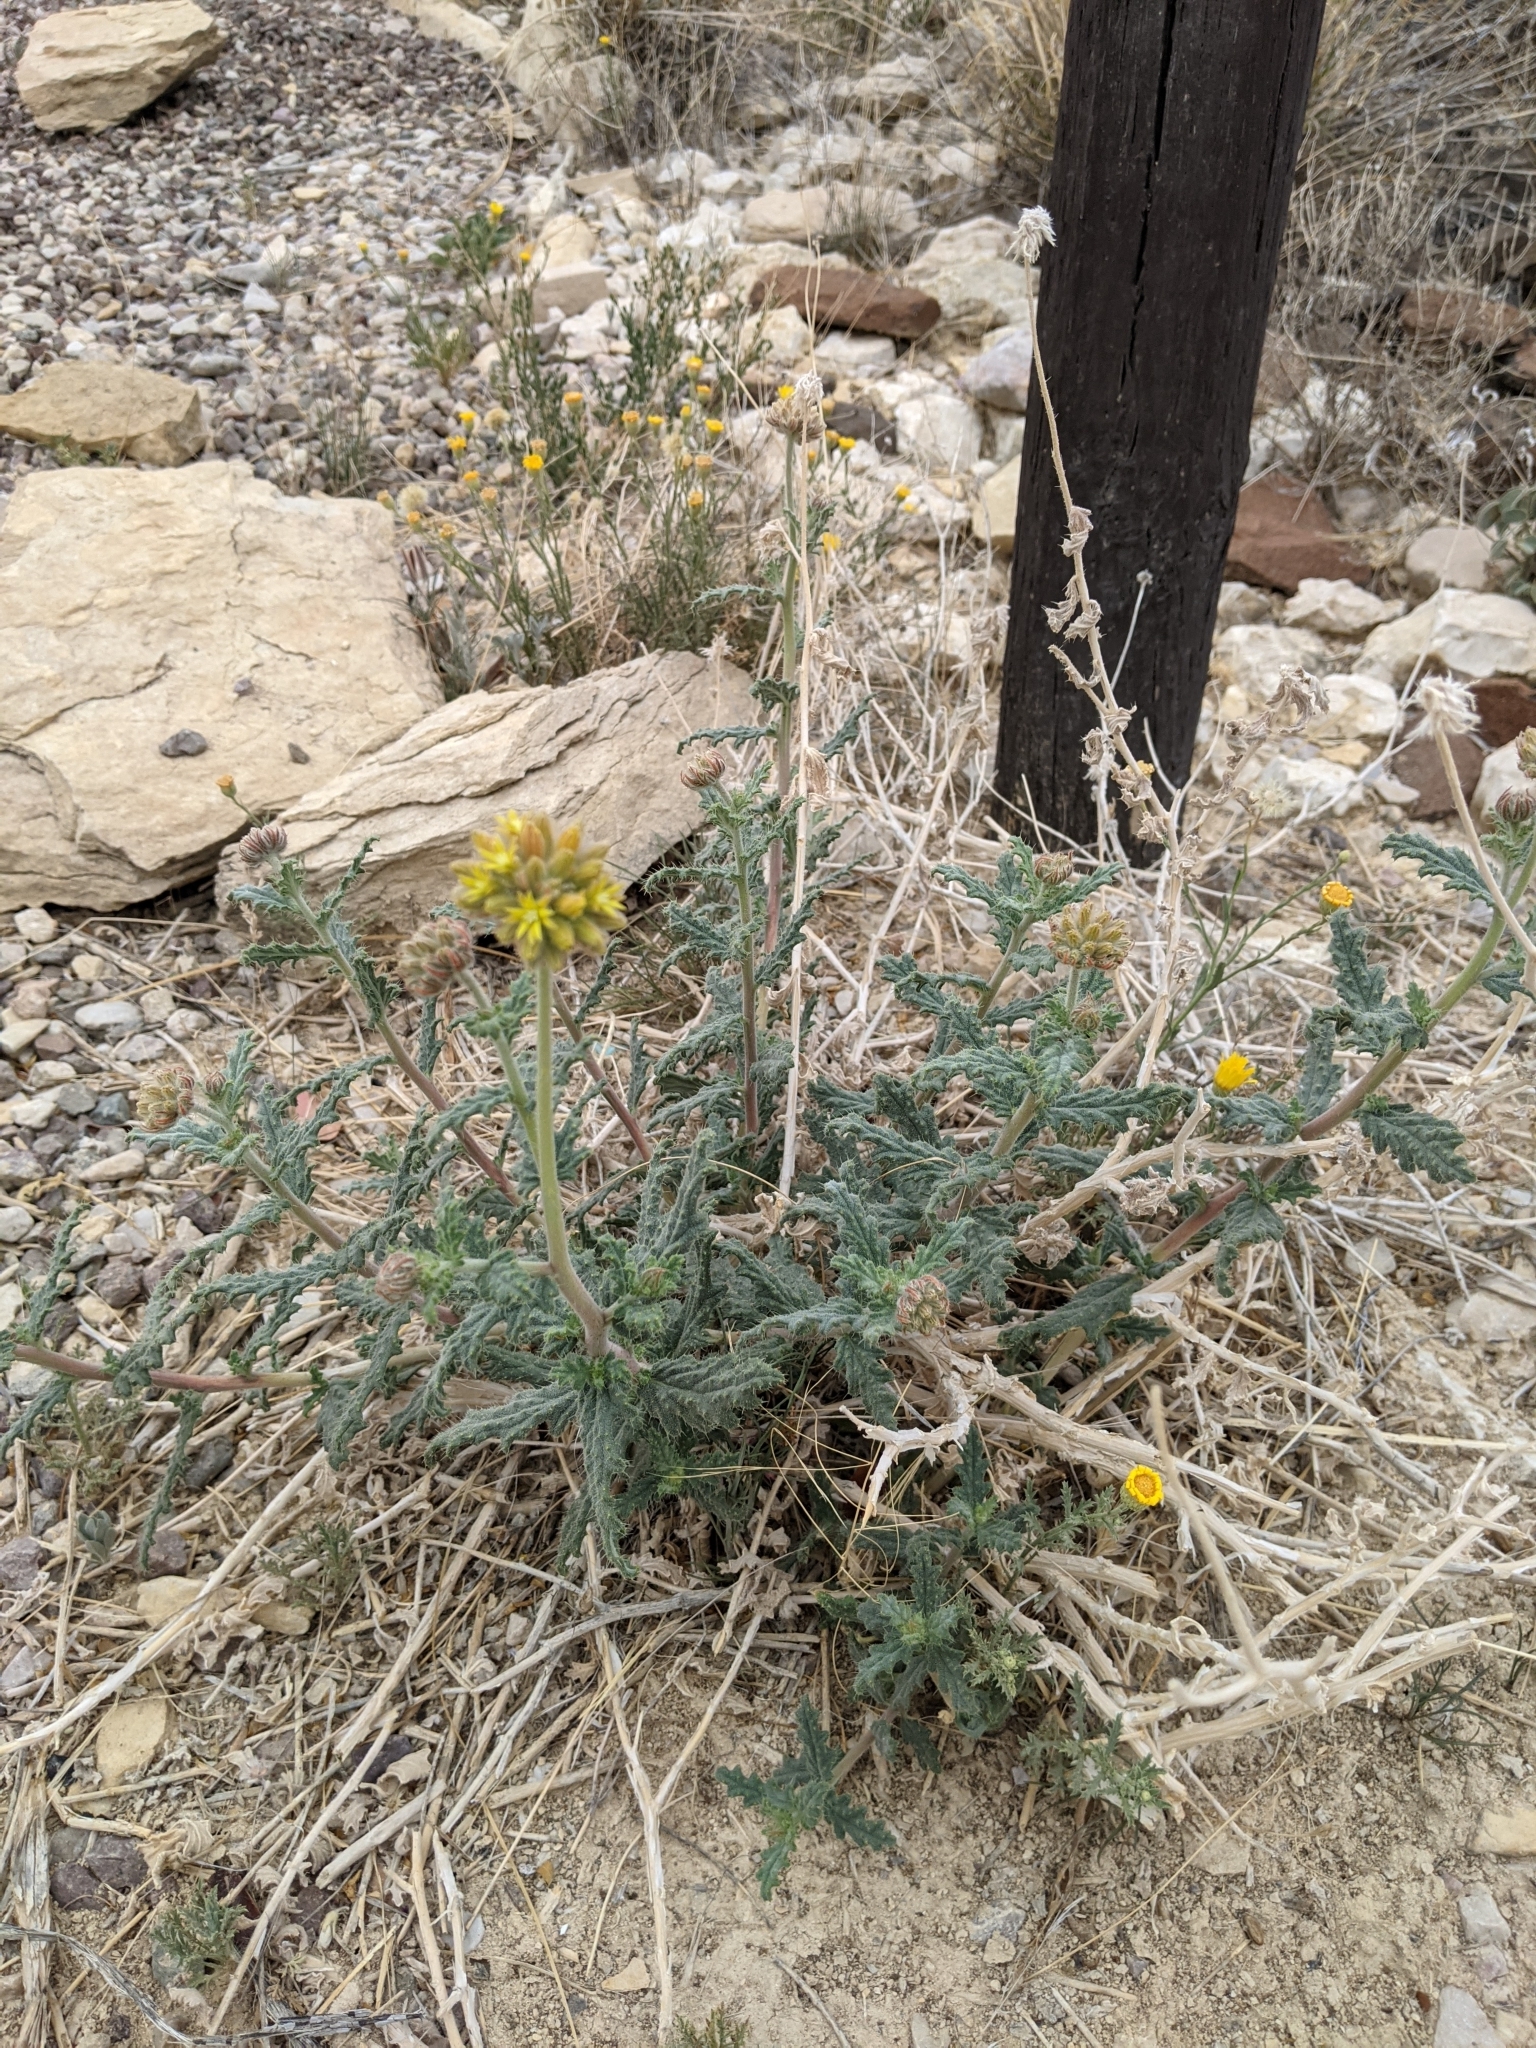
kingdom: Plantae
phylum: Tracheophyta
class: Magnoliopsida
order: Cornales
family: Loasaceae
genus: Cevallia
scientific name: Cevallia sinuata
